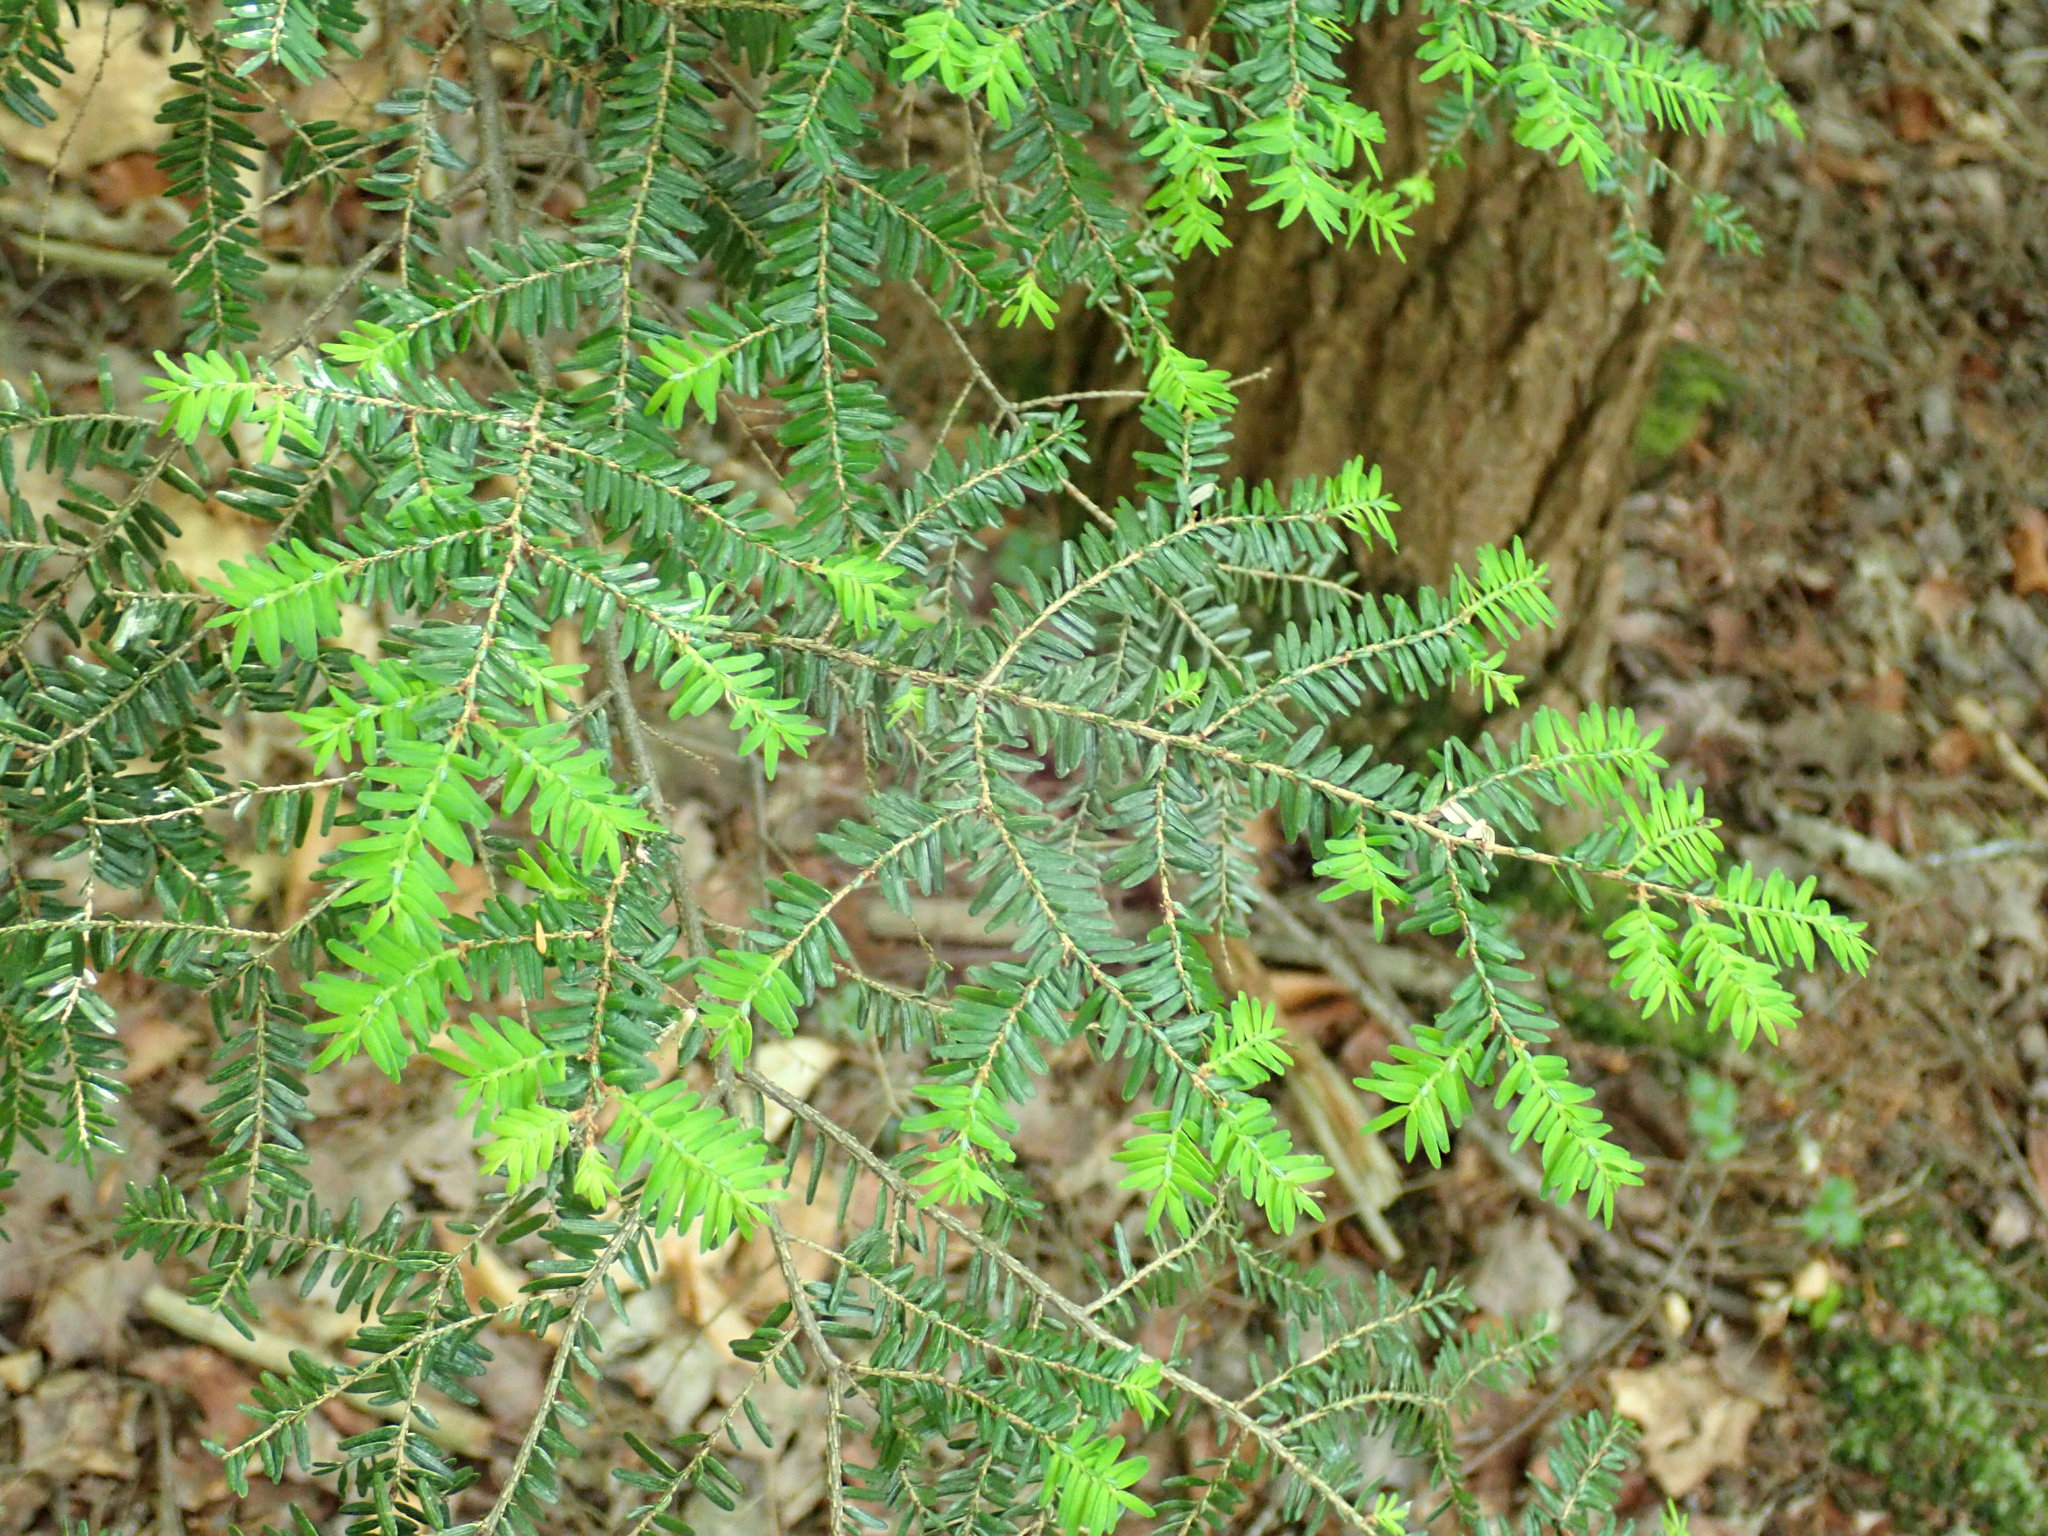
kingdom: Plantae
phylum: Tracheophyta
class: Pinopsida
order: Pinales
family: Pinaceae
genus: Tsuga
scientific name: Tsuga canadensis
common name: Eastern hemlock
